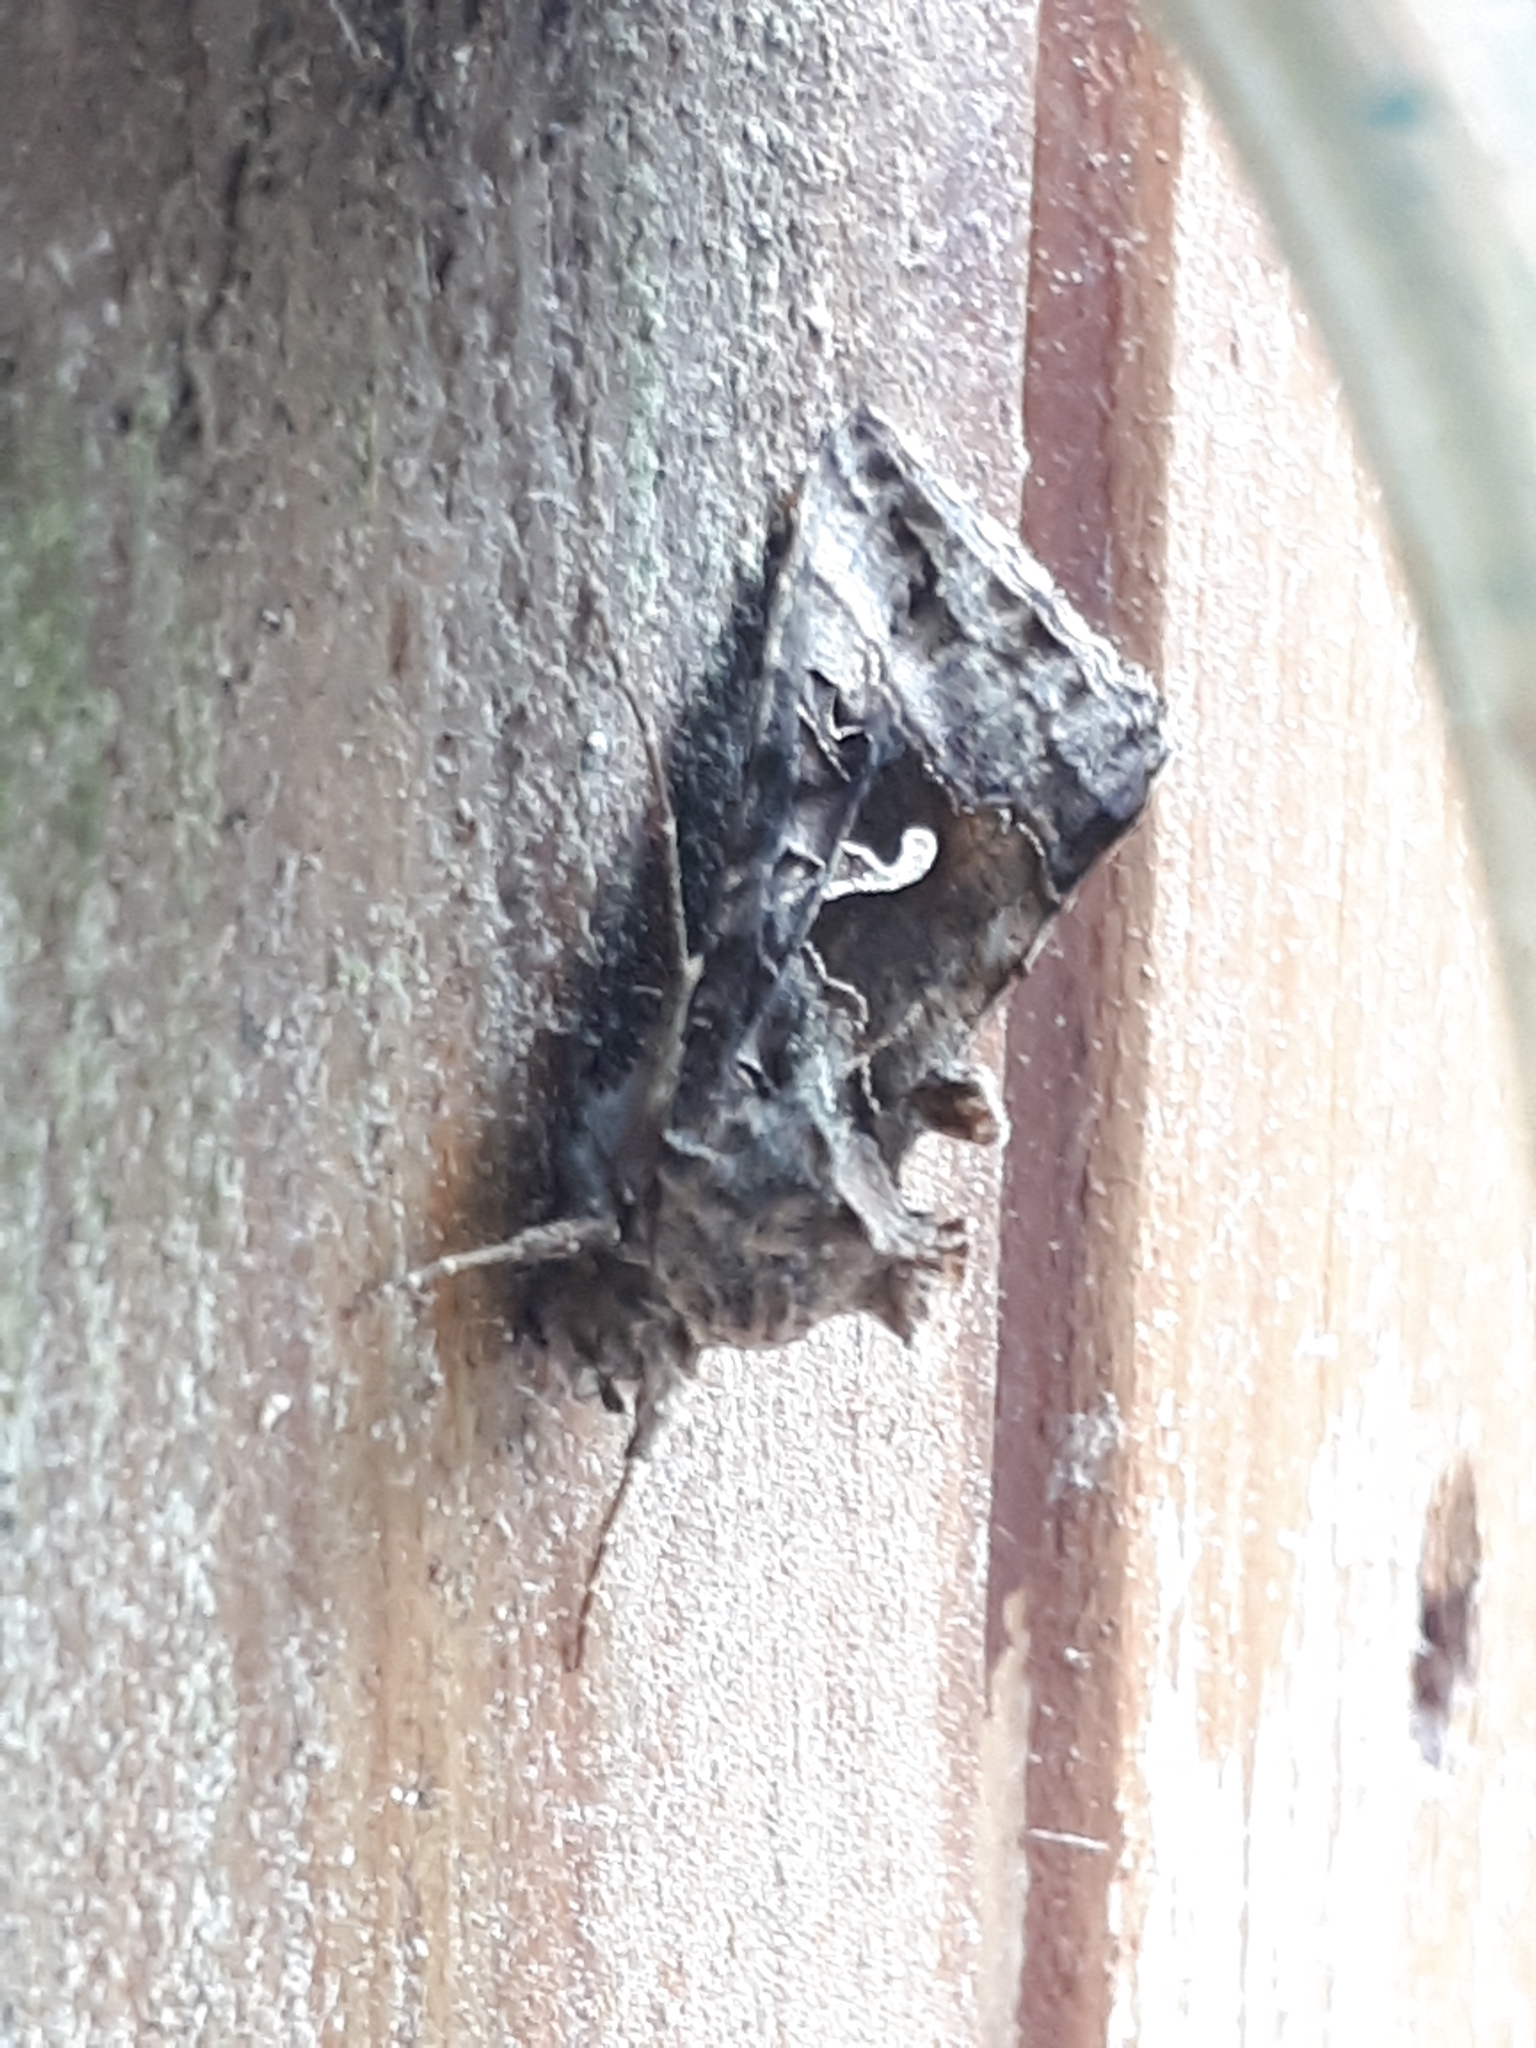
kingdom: Animalia
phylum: Arthropoda
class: Insecta
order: Lepidoptera
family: Noctuidae
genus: Autographa
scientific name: Autographa gamma
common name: Silver y
